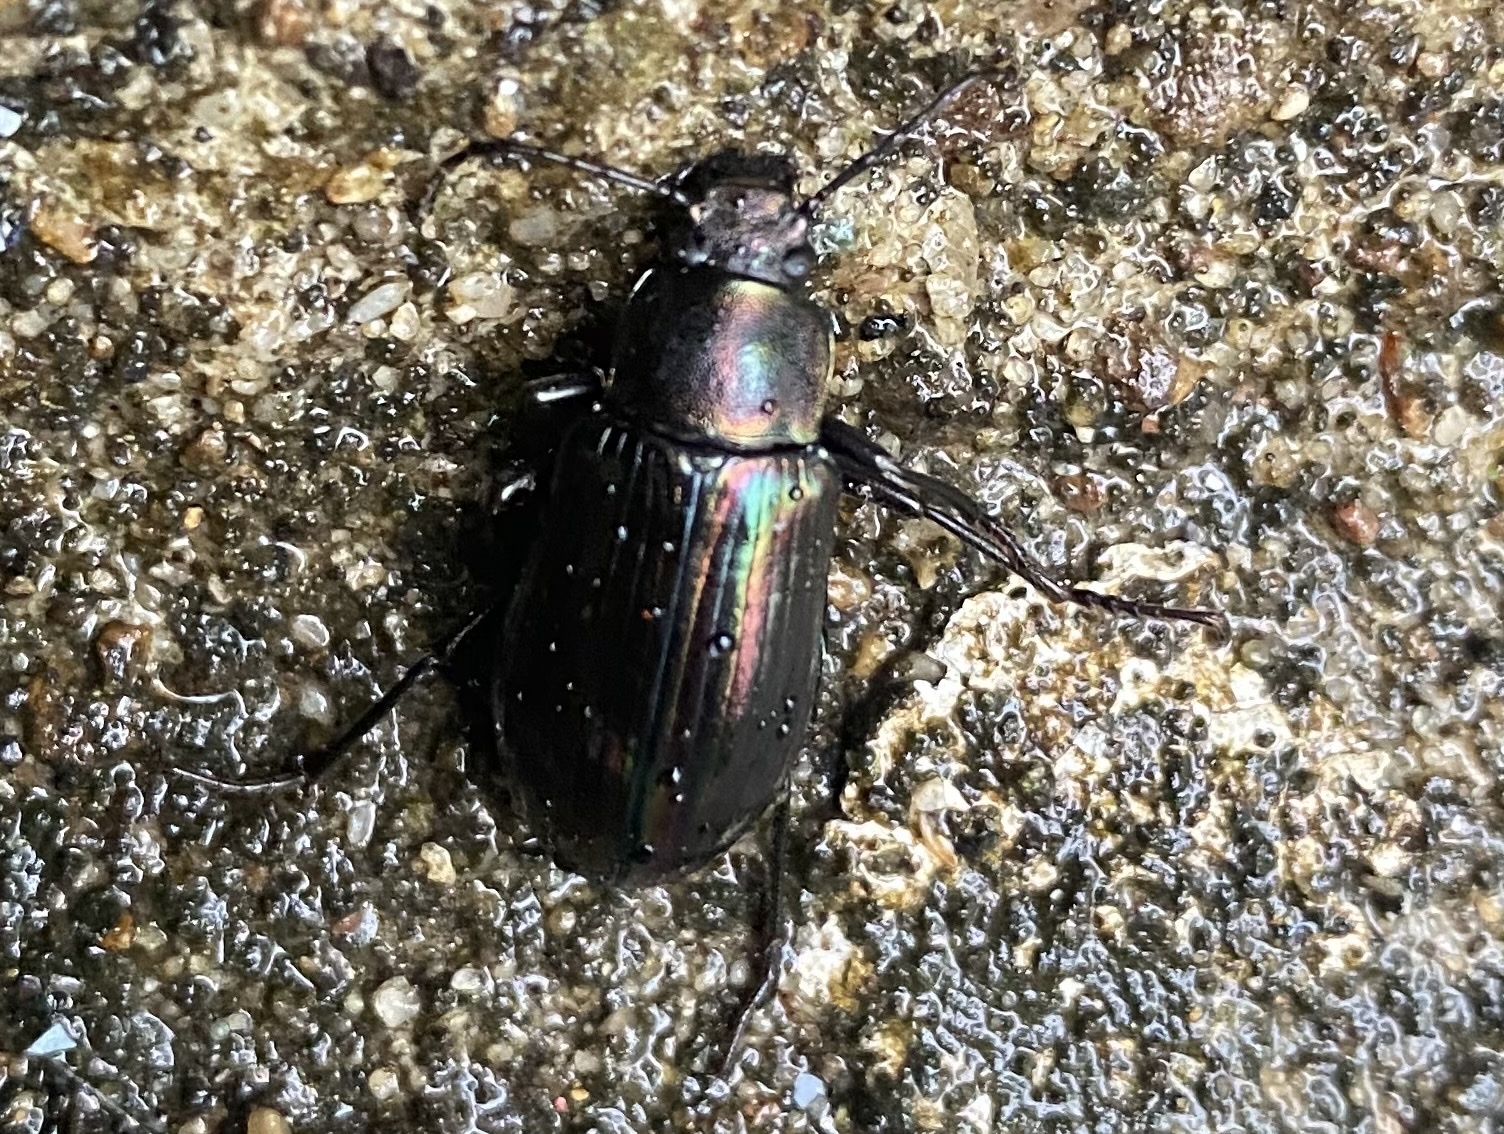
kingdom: Animalia
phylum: Arthropoda
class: Insecta
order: Coleoptera
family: Tenebrionidae
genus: Tarpela
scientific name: Tarpela micans
